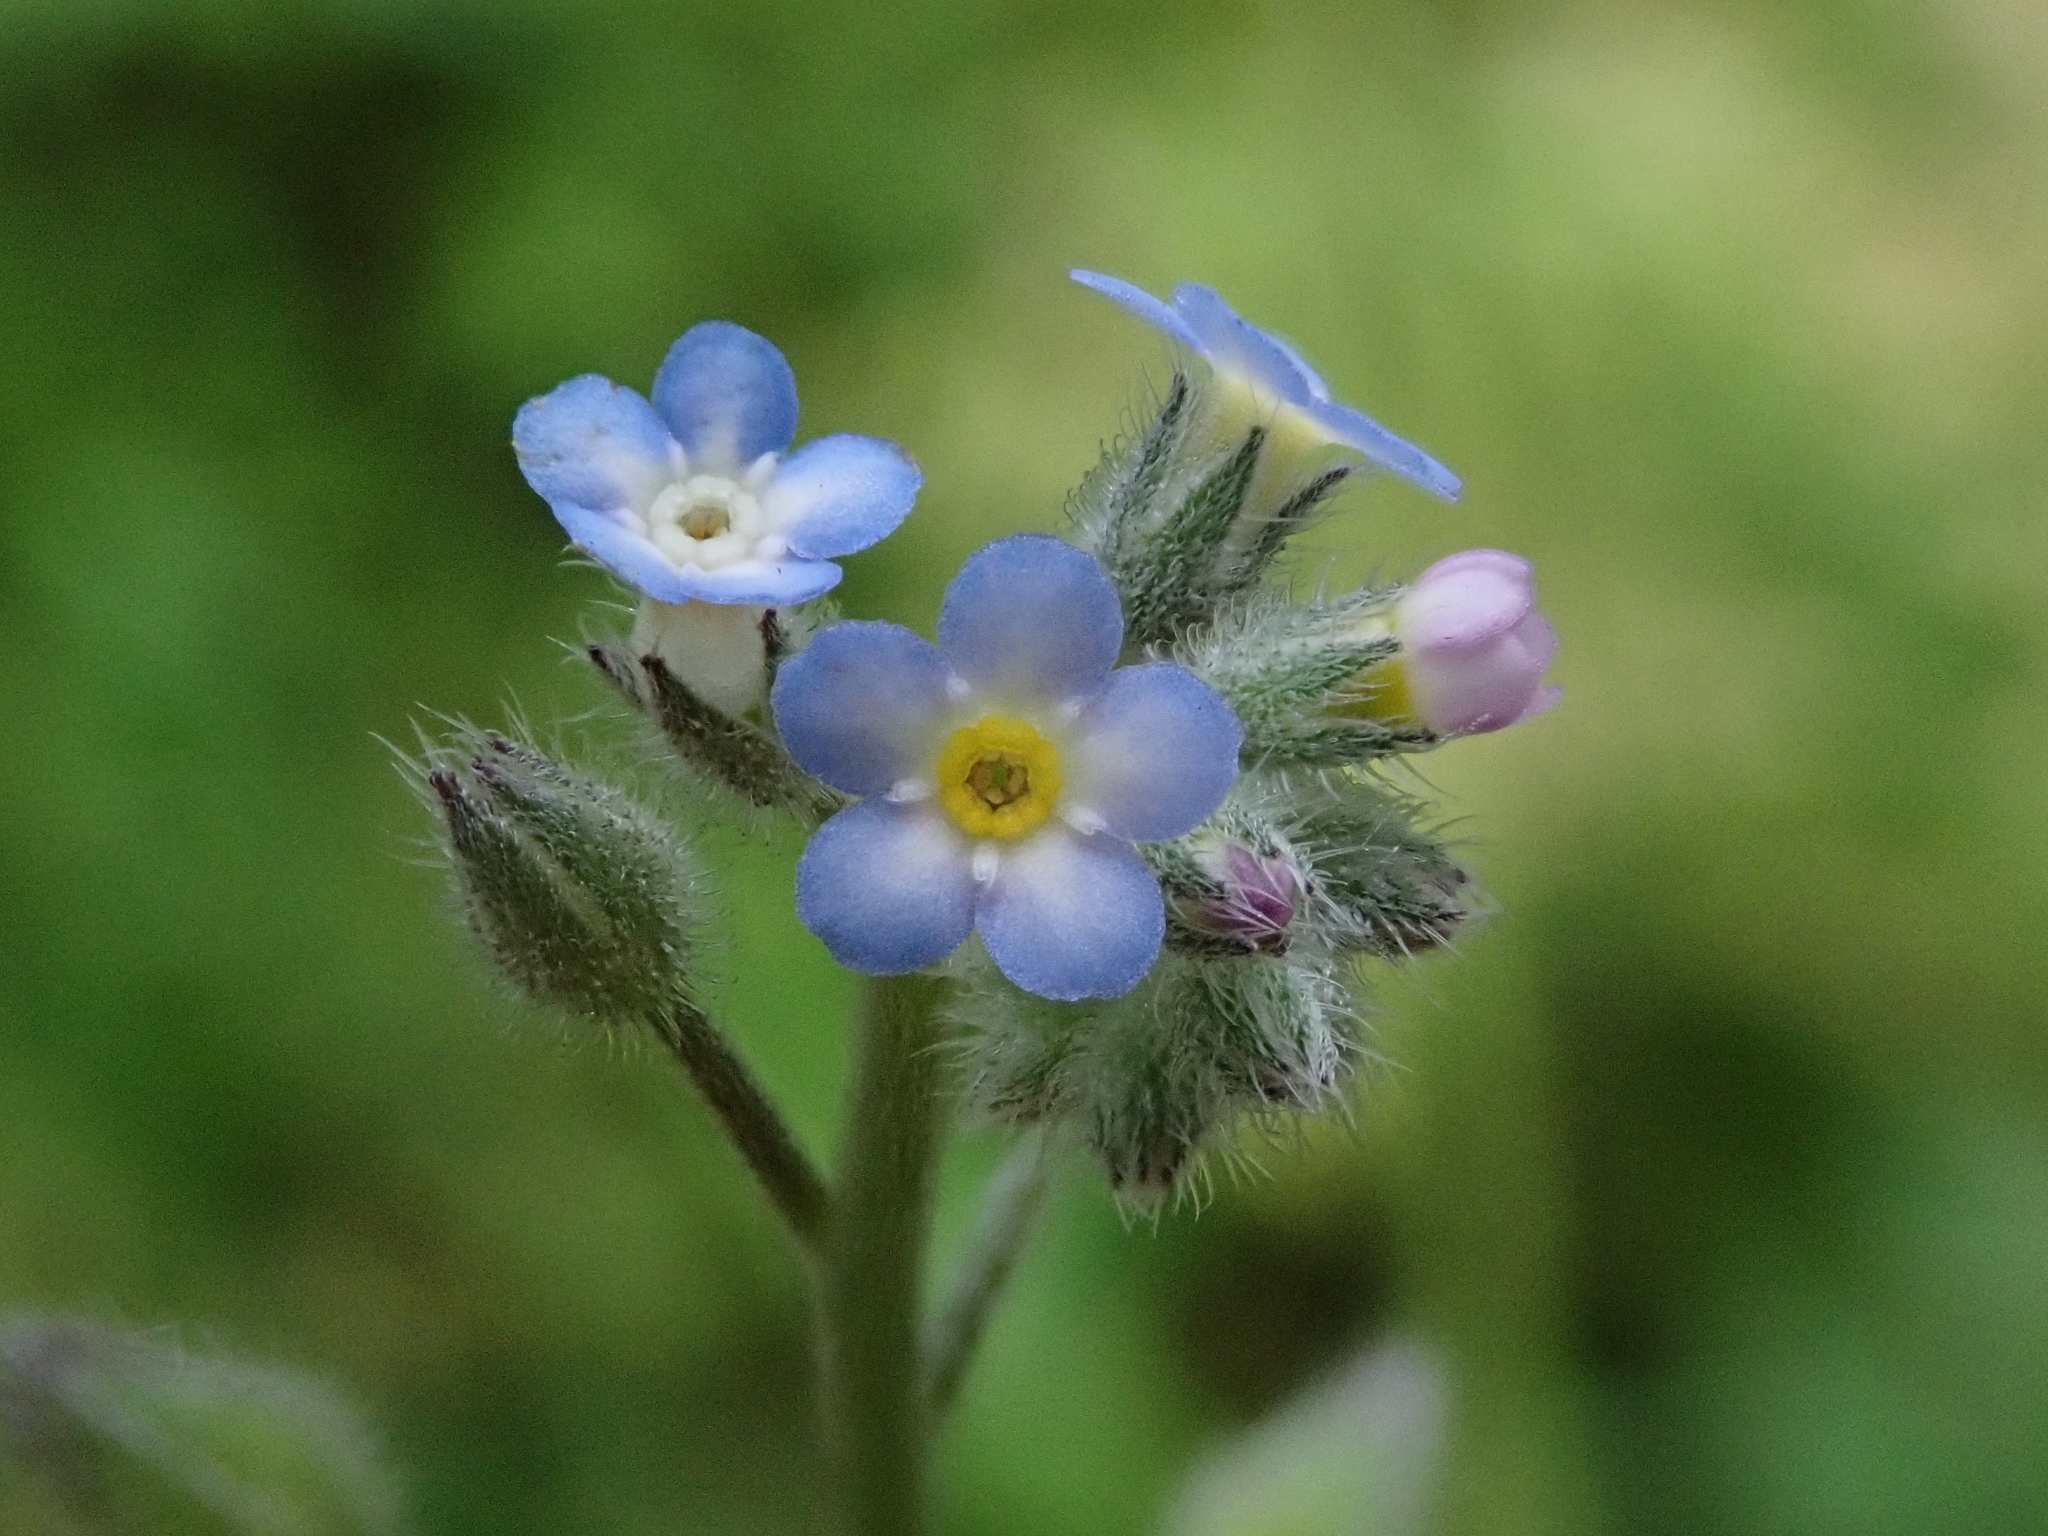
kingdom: Plantae
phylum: Tracheophyta
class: Magnoliopsida
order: Boraginales
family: Boraginaceae
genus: Myosotis
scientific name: Myosotis arvensis
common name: Field forget-me-not
